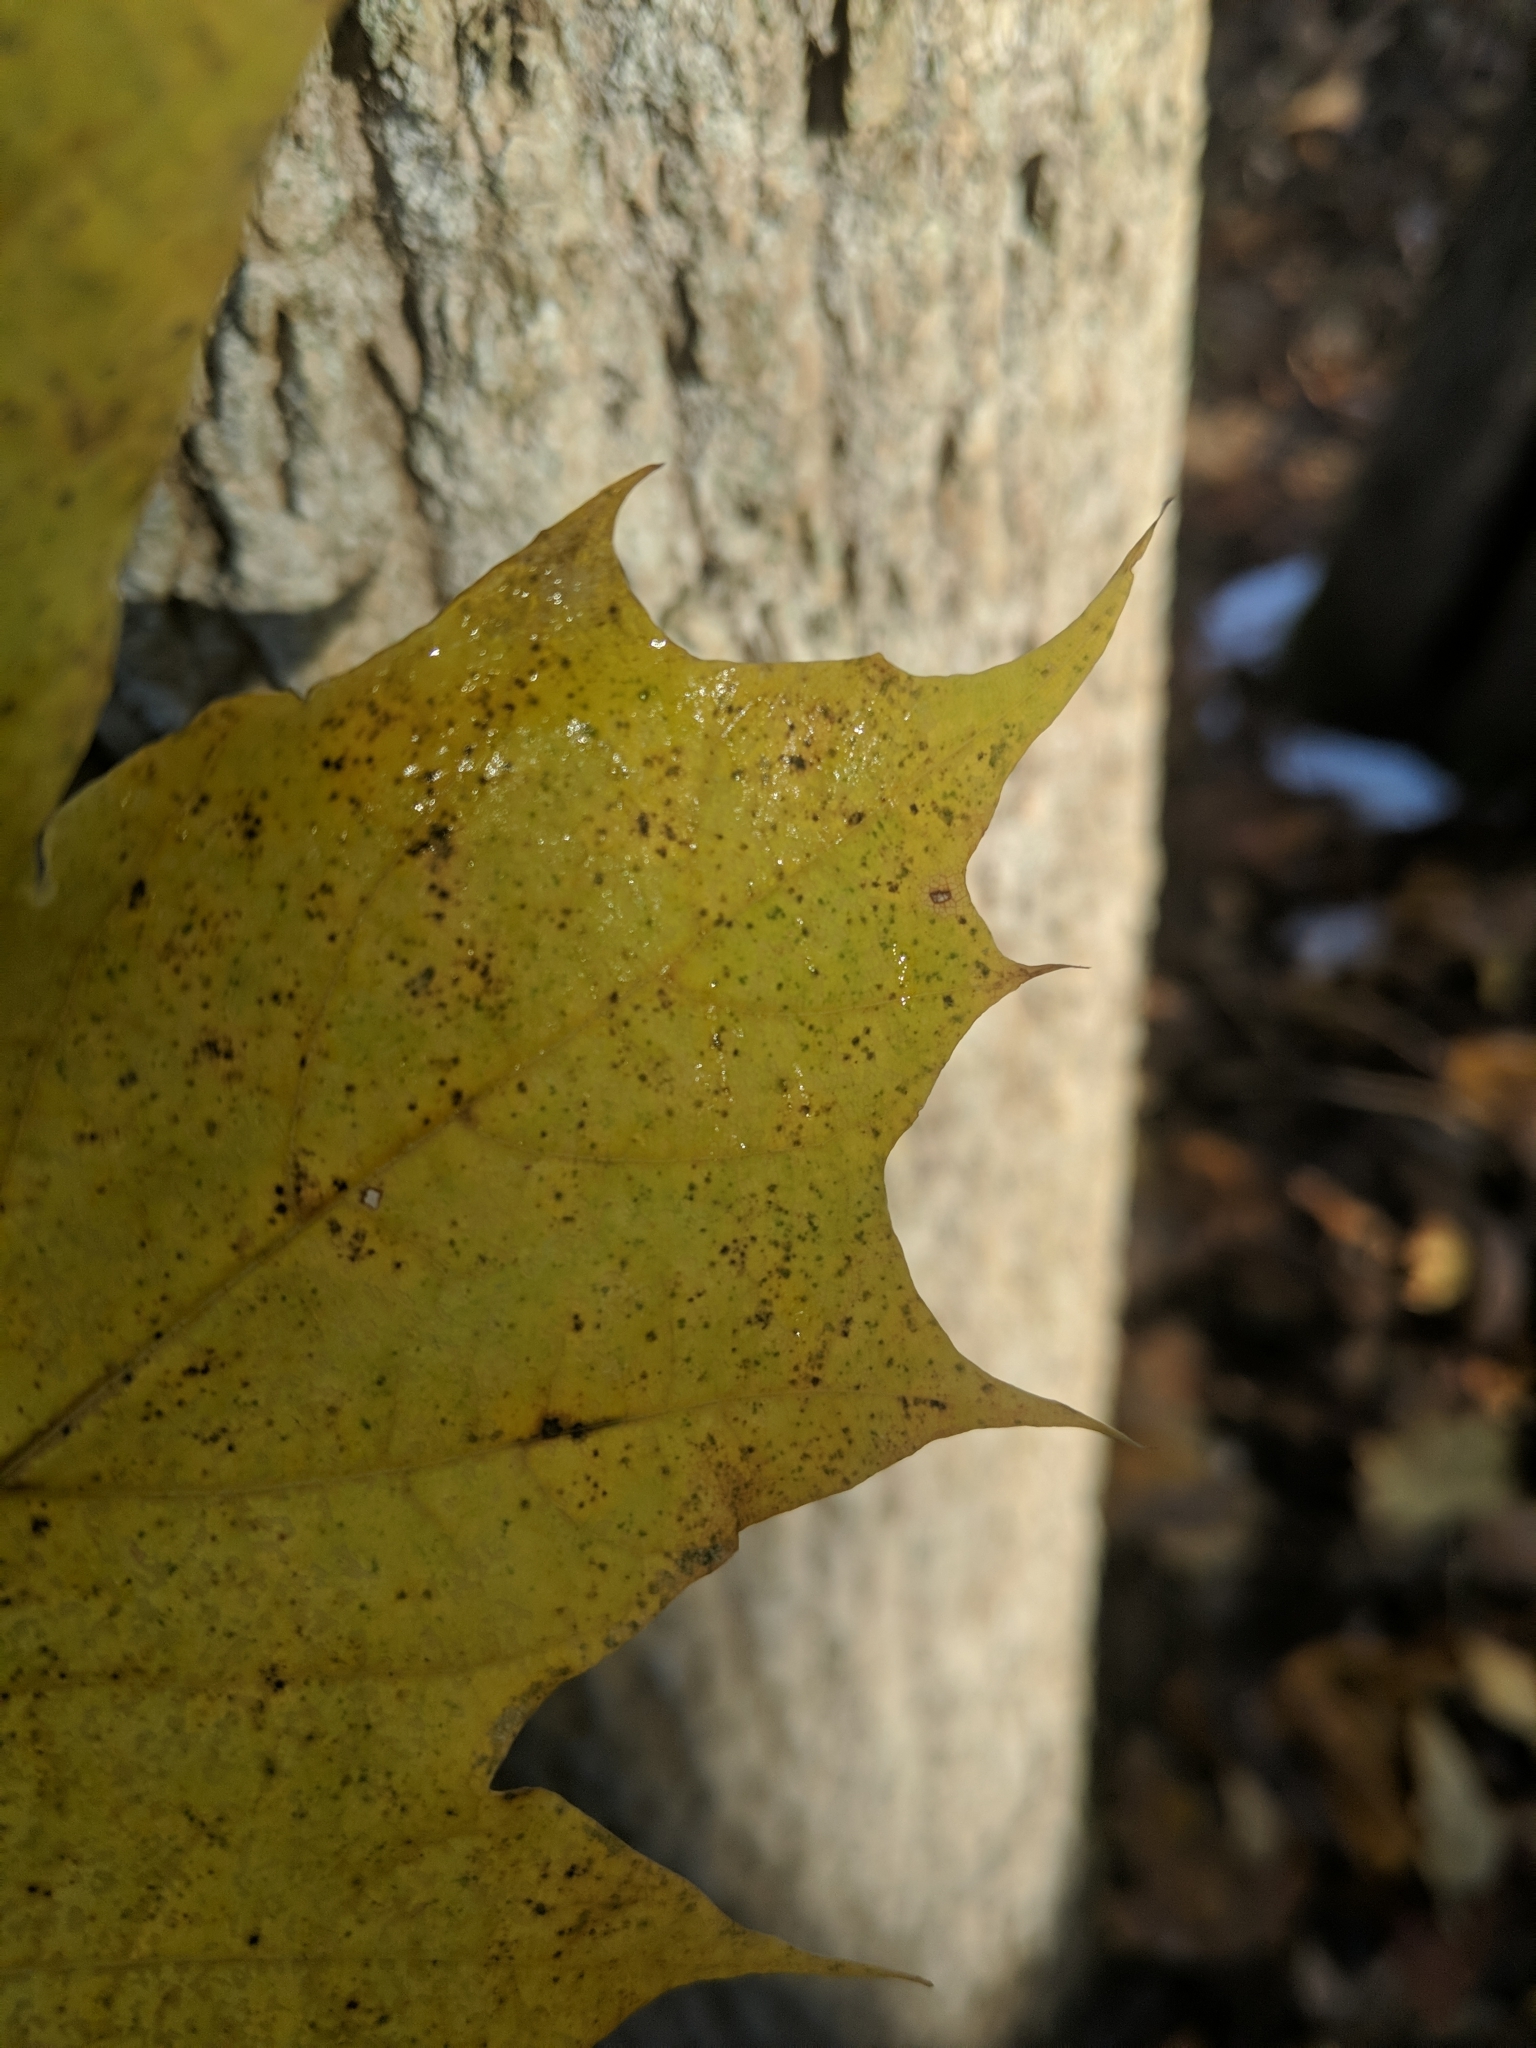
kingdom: Plantae
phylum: Tracheophyta
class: Magnoliopsida
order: Sapindales
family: Sapindaceae
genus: Acer
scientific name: Acer platanoides
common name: Norway maple
